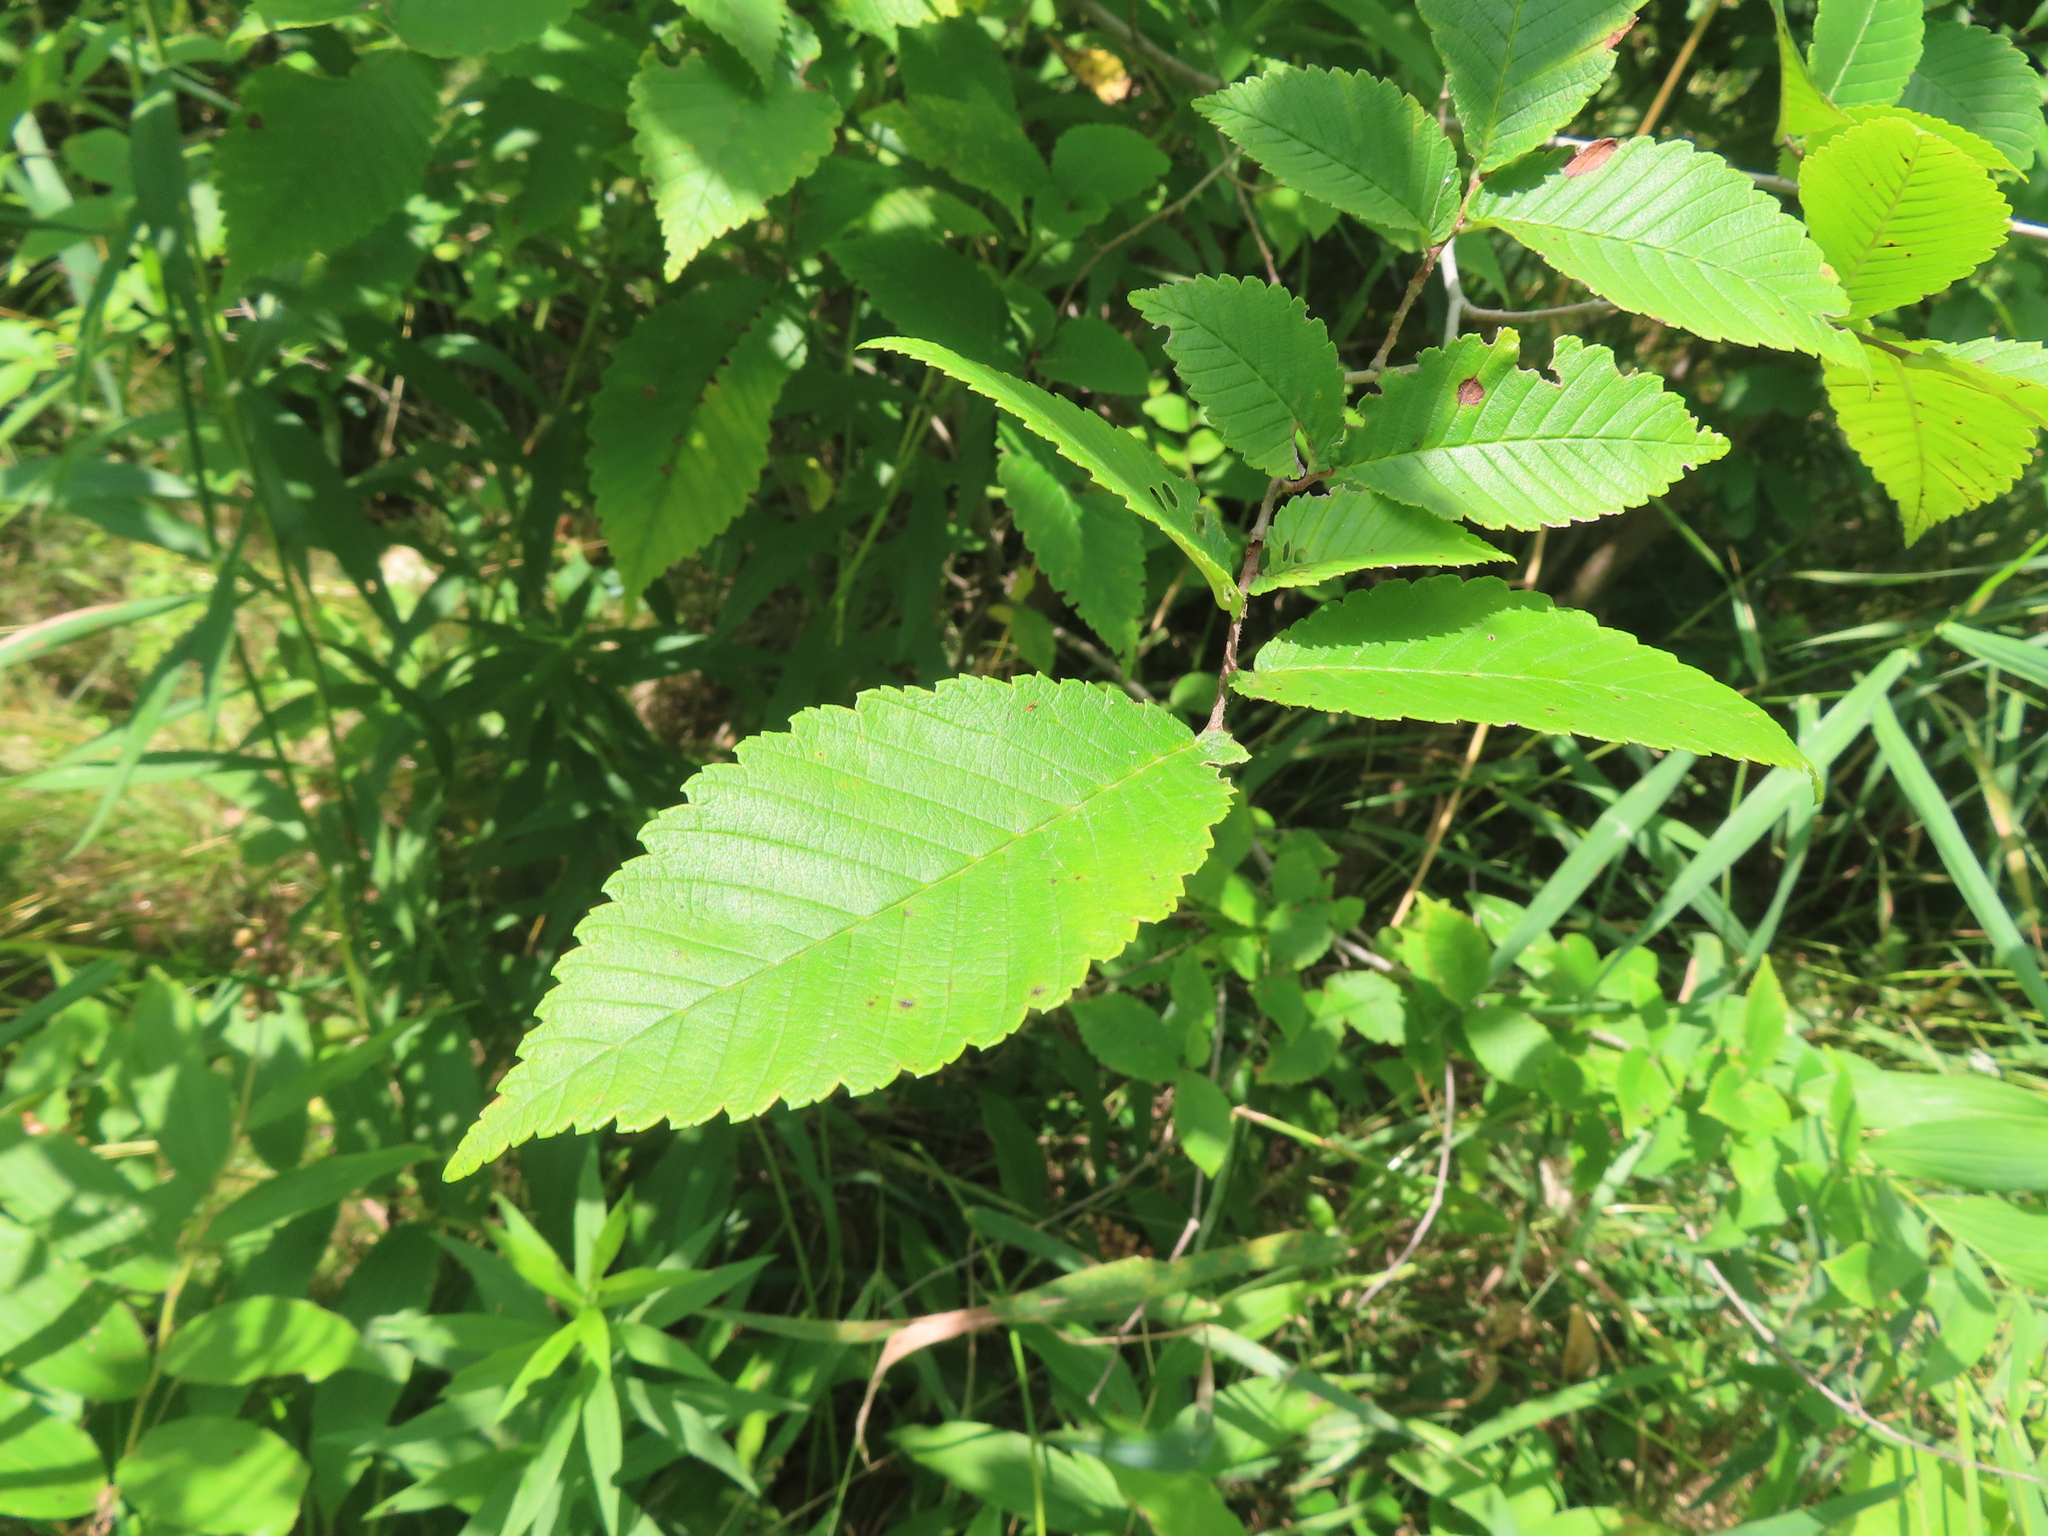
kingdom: Plantae
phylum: Tracheophyta
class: Magnoliopsida
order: Rosales
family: Ulmaceae
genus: Ulmus
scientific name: Ulmus americana
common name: American elm
